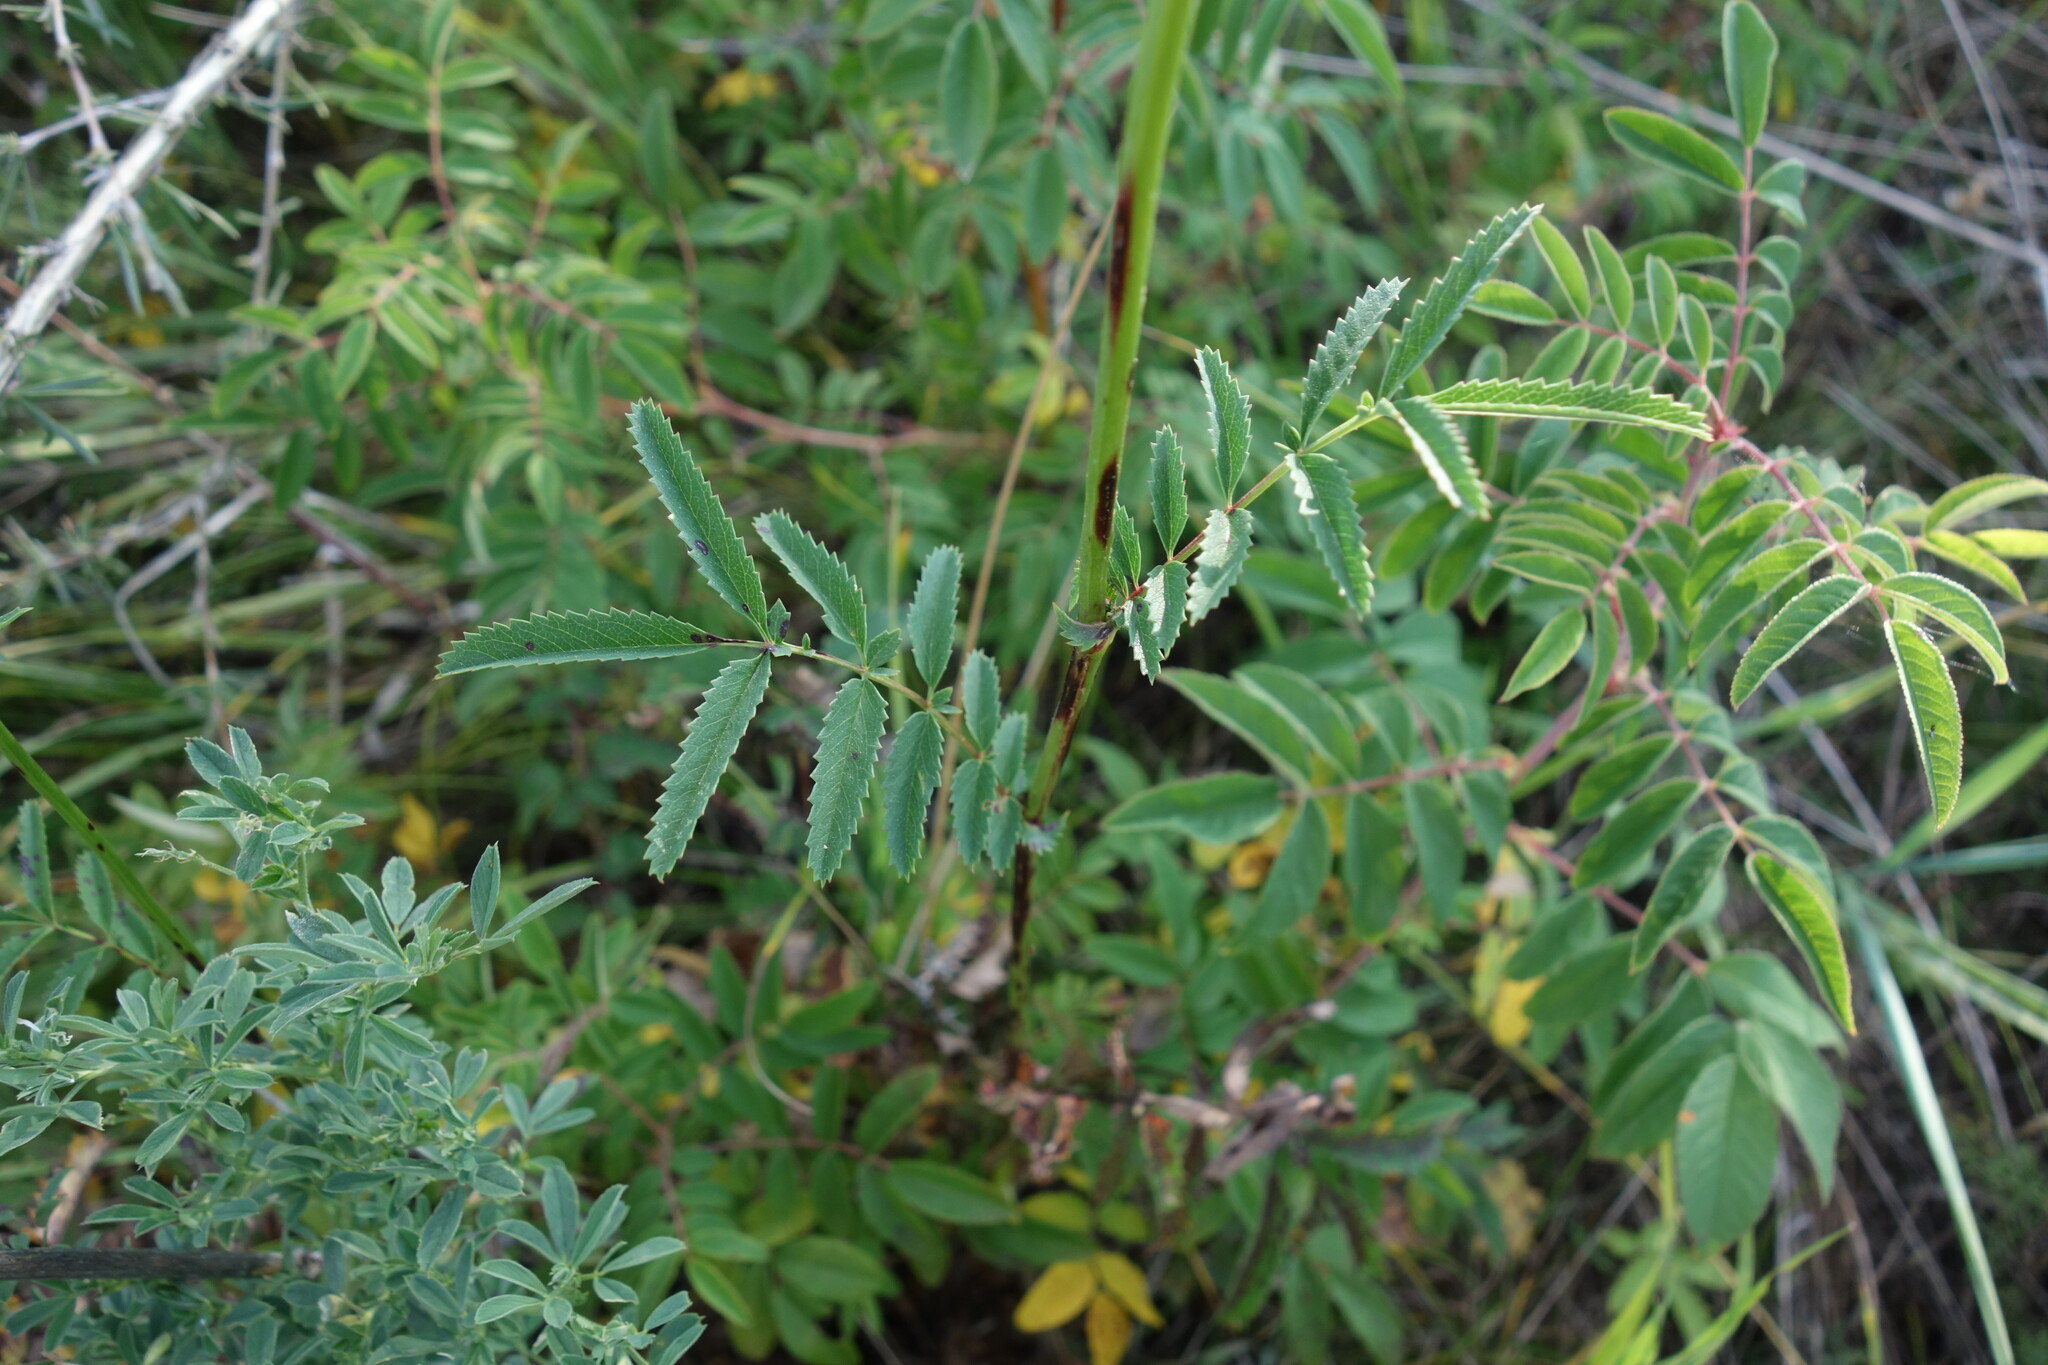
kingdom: Plantae
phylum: Tracheophyta
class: Magnoliopsida
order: Rosales
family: Rosaceae
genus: Sanguisorba
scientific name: Sanguisorba officinalis
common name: Great burnet
